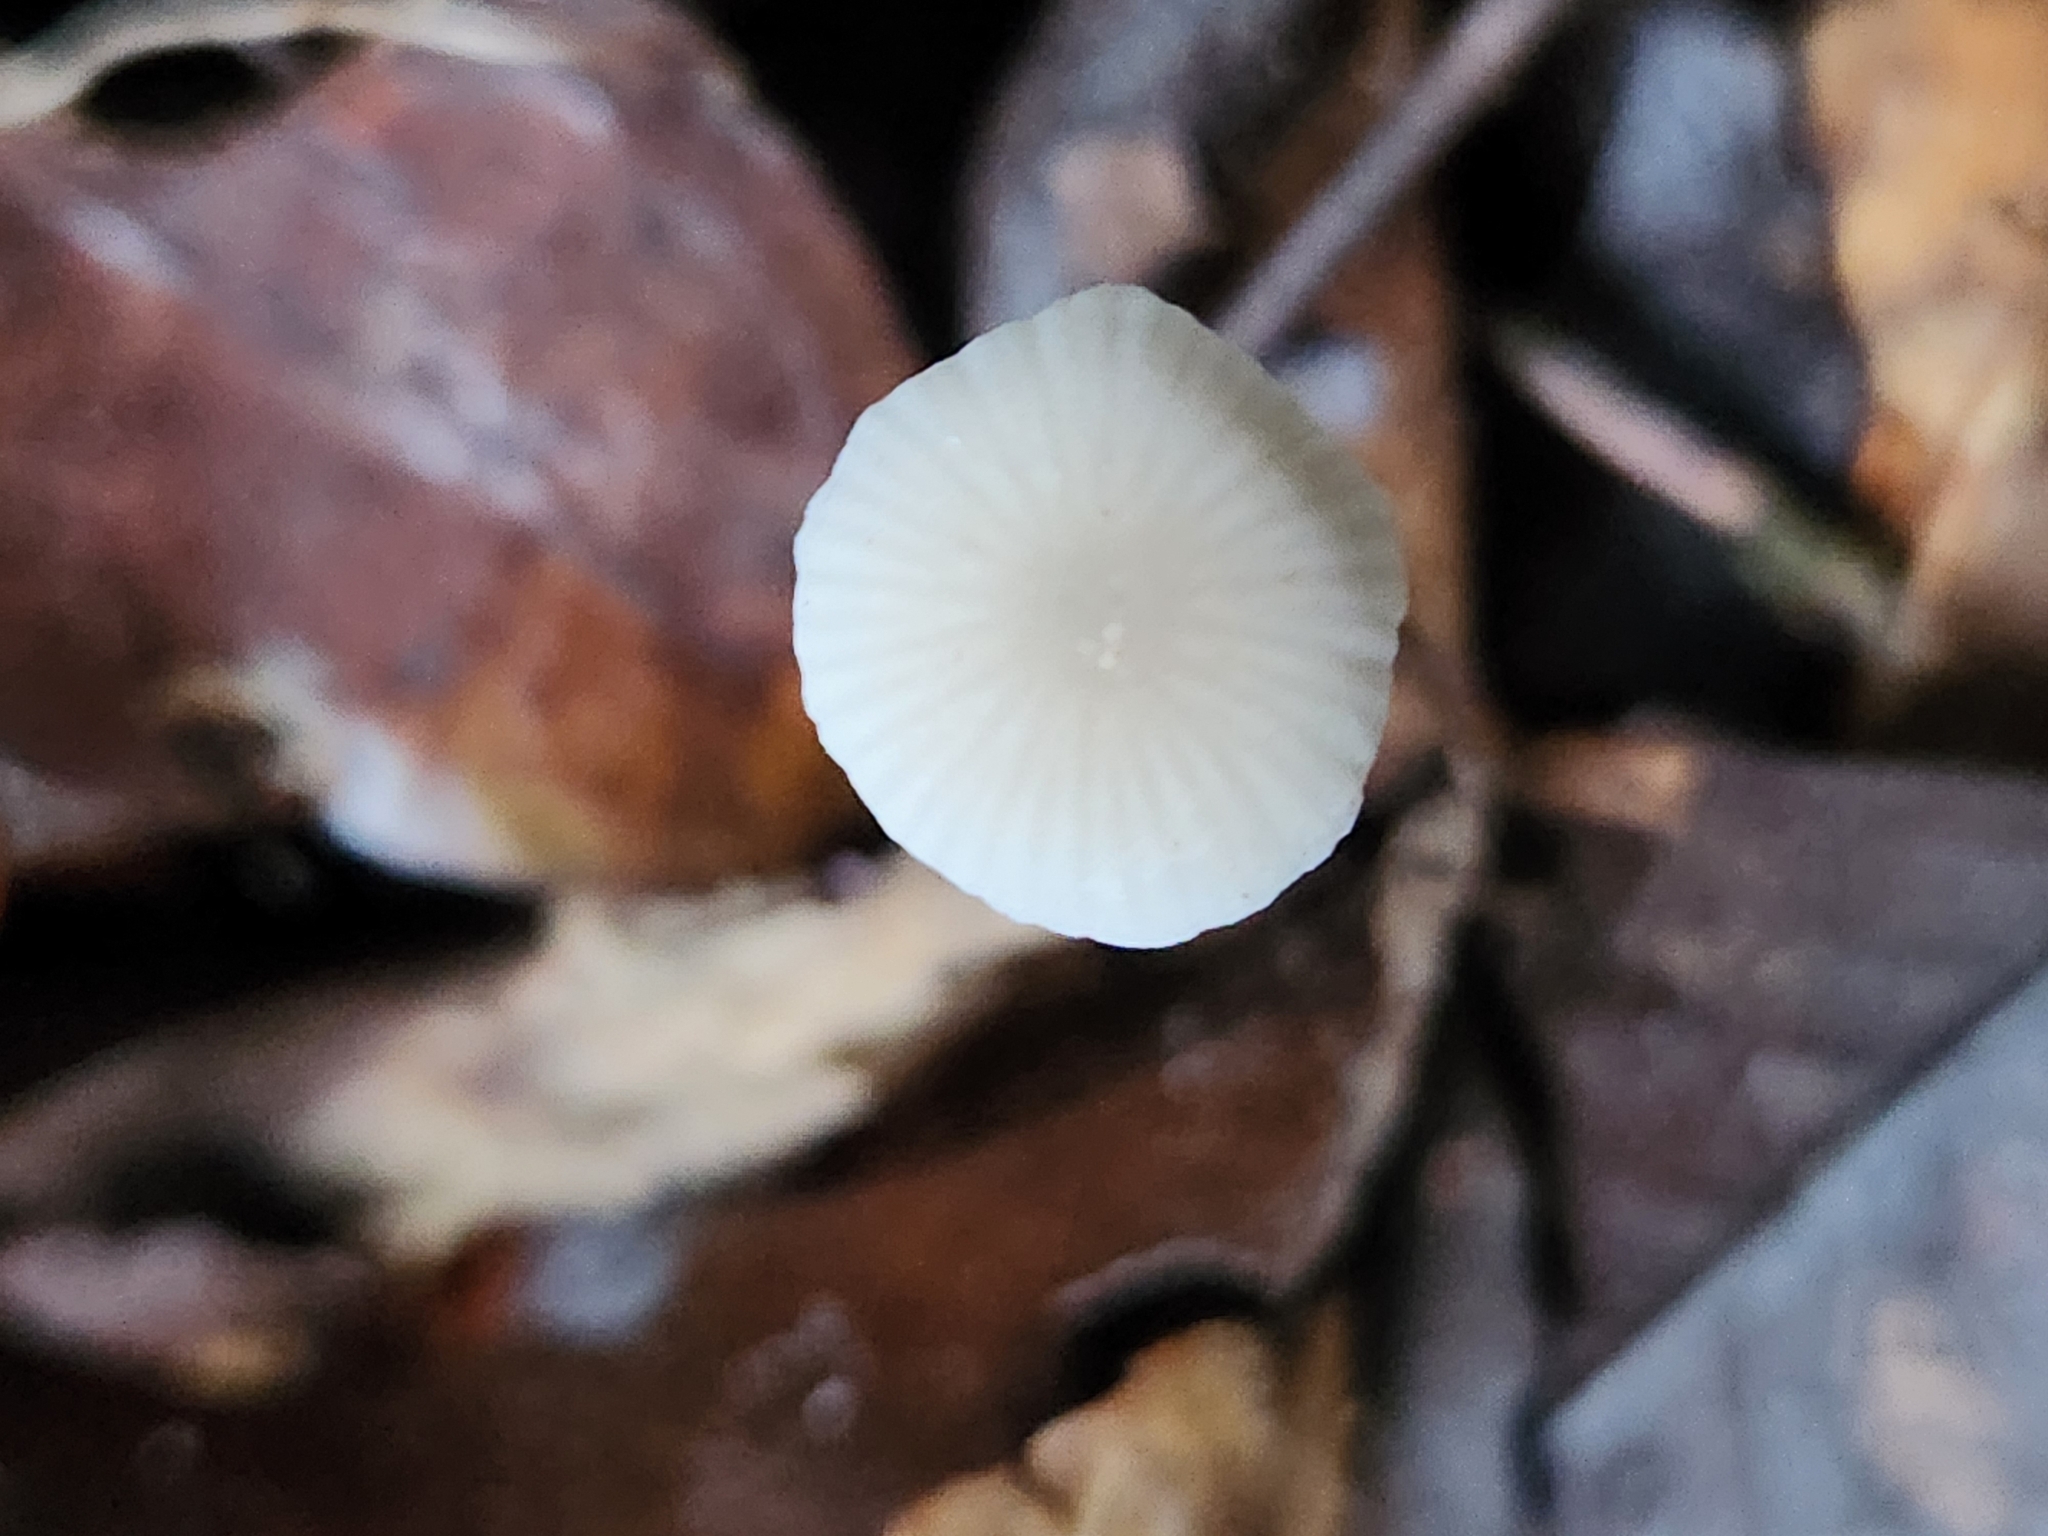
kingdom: Fungi
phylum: Basidiomycota
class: Agaricomycetes
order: Agaricales
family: Mycenaceae
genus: Hemimycena
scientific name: Hemimycena lactea
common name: Milky bonnet
